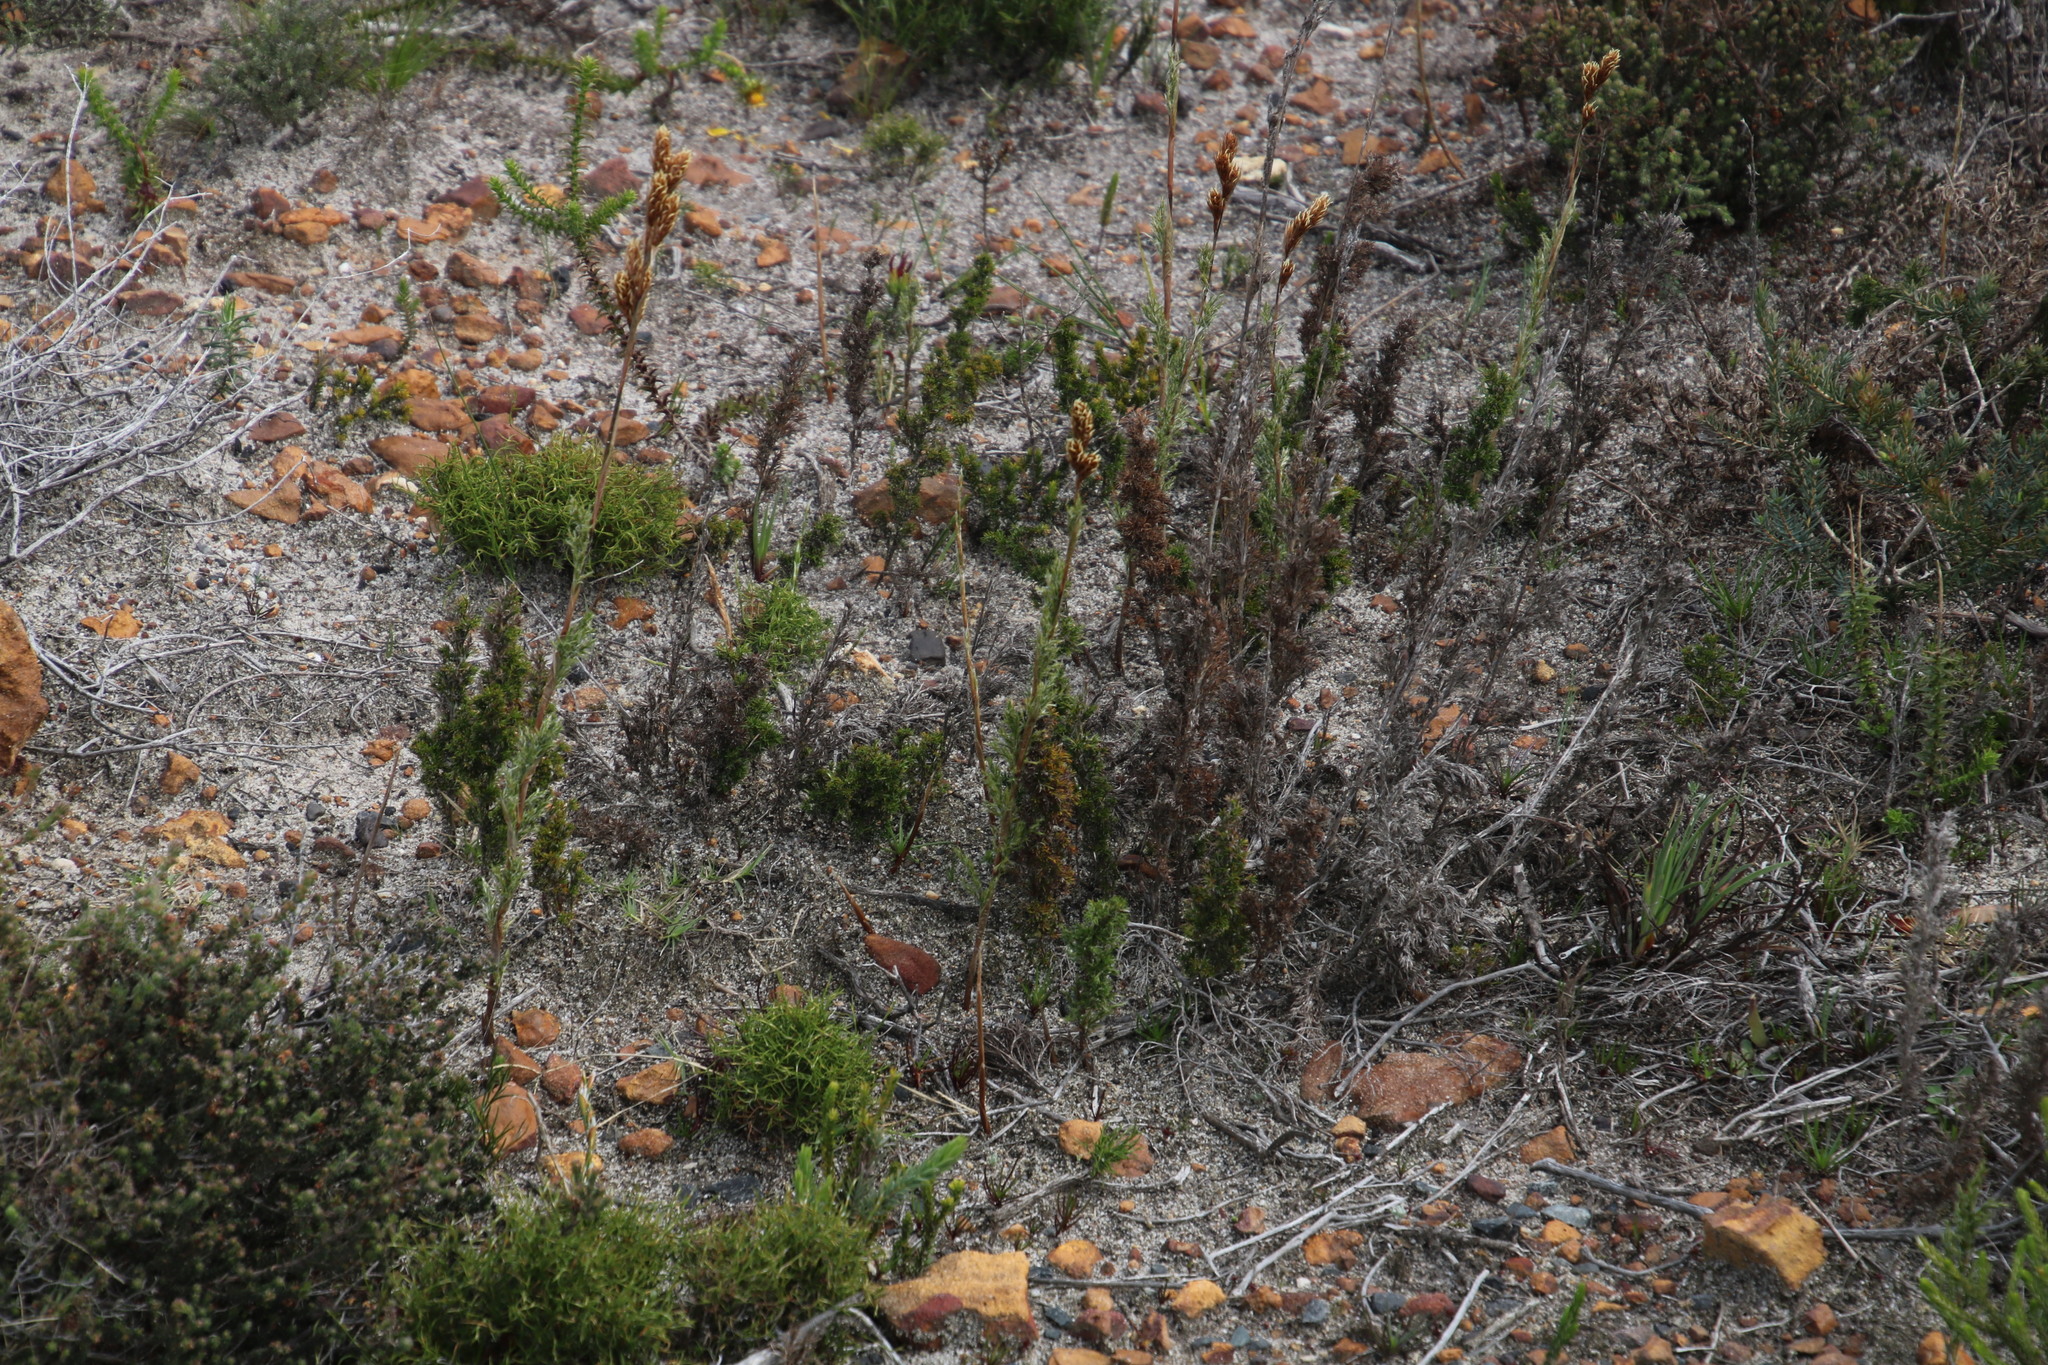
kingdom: Plantae
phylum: Tracheophyta
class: Liliopsida
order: Poales
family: Restionaceae
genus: Thamnochortus
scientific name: Thamnochortus fruticosus
